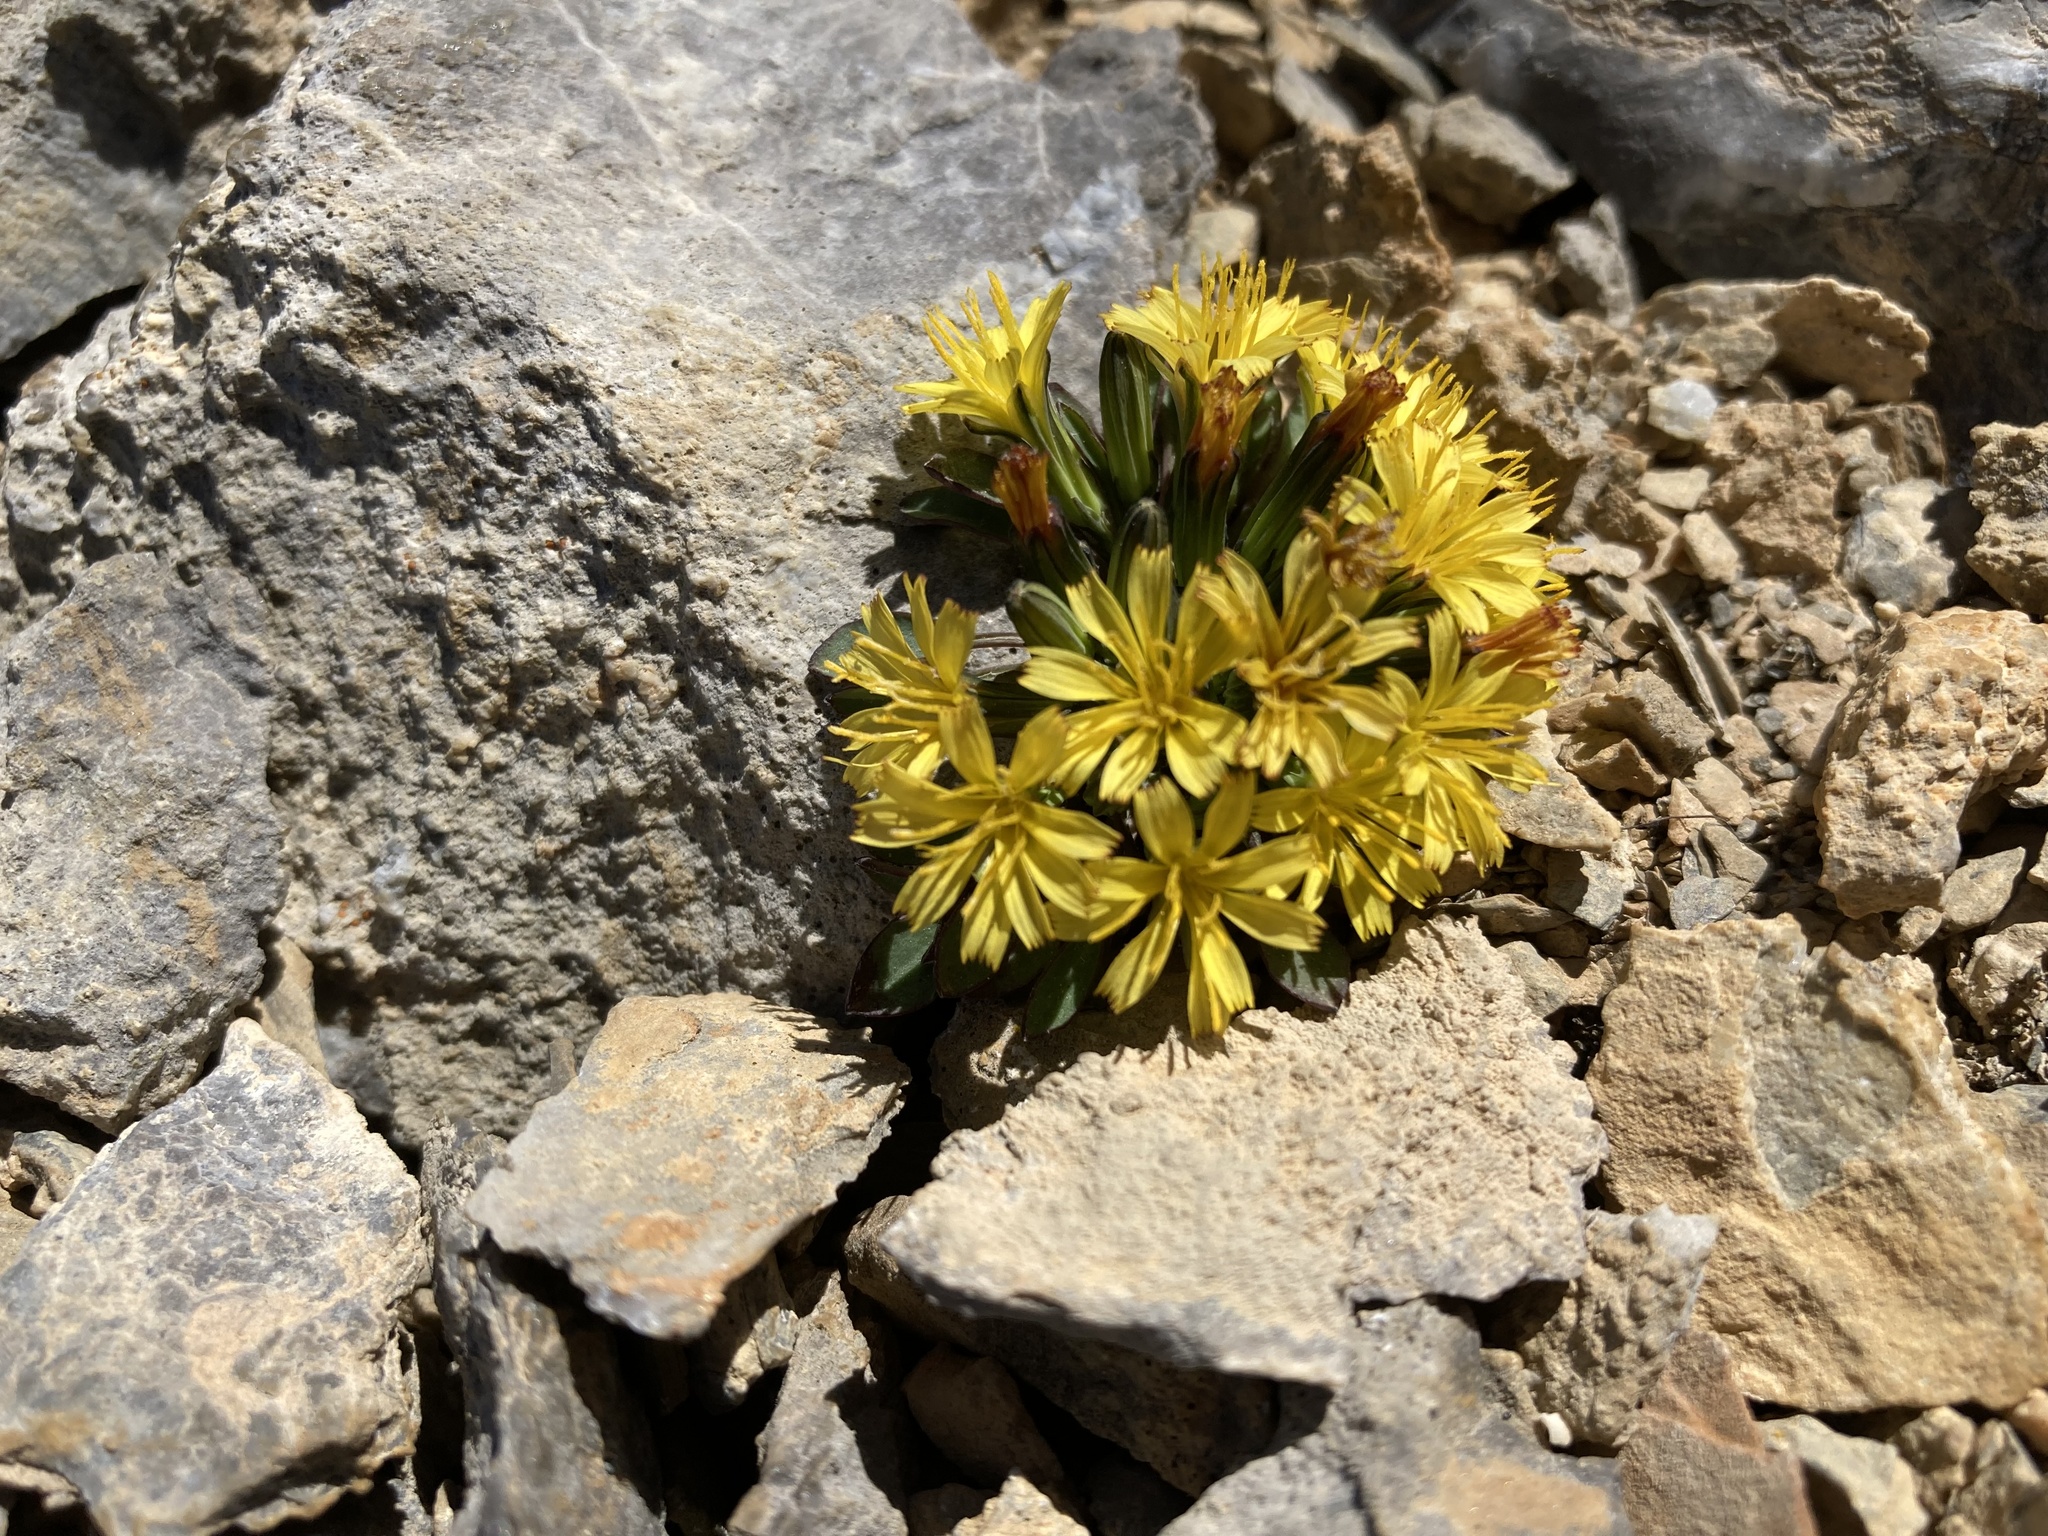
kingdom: Plantae
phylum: Tracheophyta
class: Magnoliopsida
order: Asterales
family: Asteraceae
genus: Askellia
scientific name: Askellia pygmaea
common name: Dwarf alpine hawksbeard
